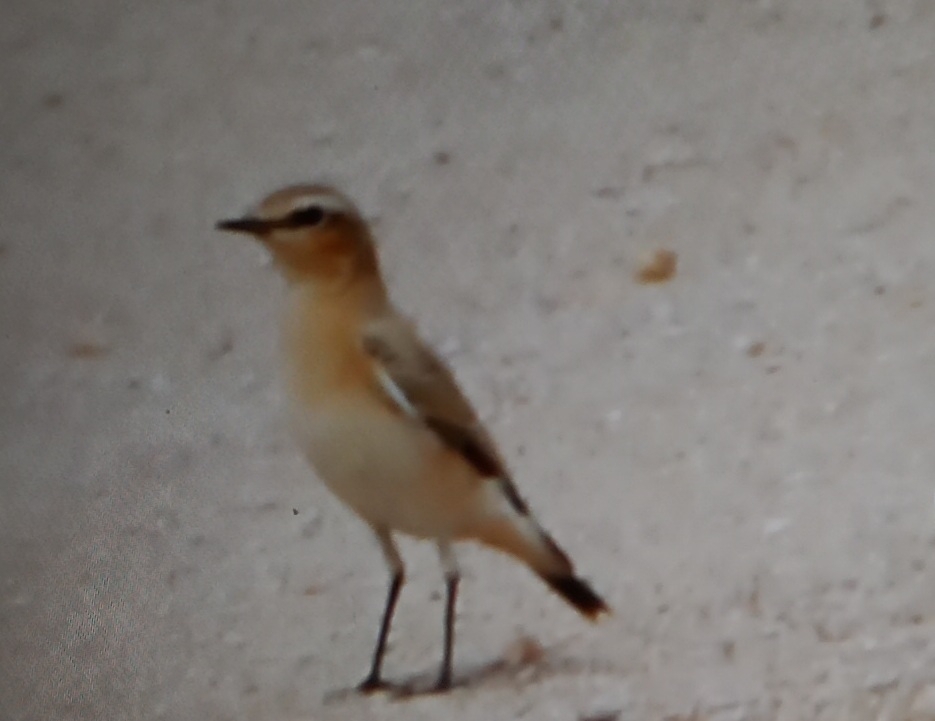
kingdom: Animalia
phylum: Chordata
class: Aves
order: Passeriformes
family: Muscicapidae
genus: Oenanthe
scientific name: Oenanthe oenanthe
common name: Northern wheatear
